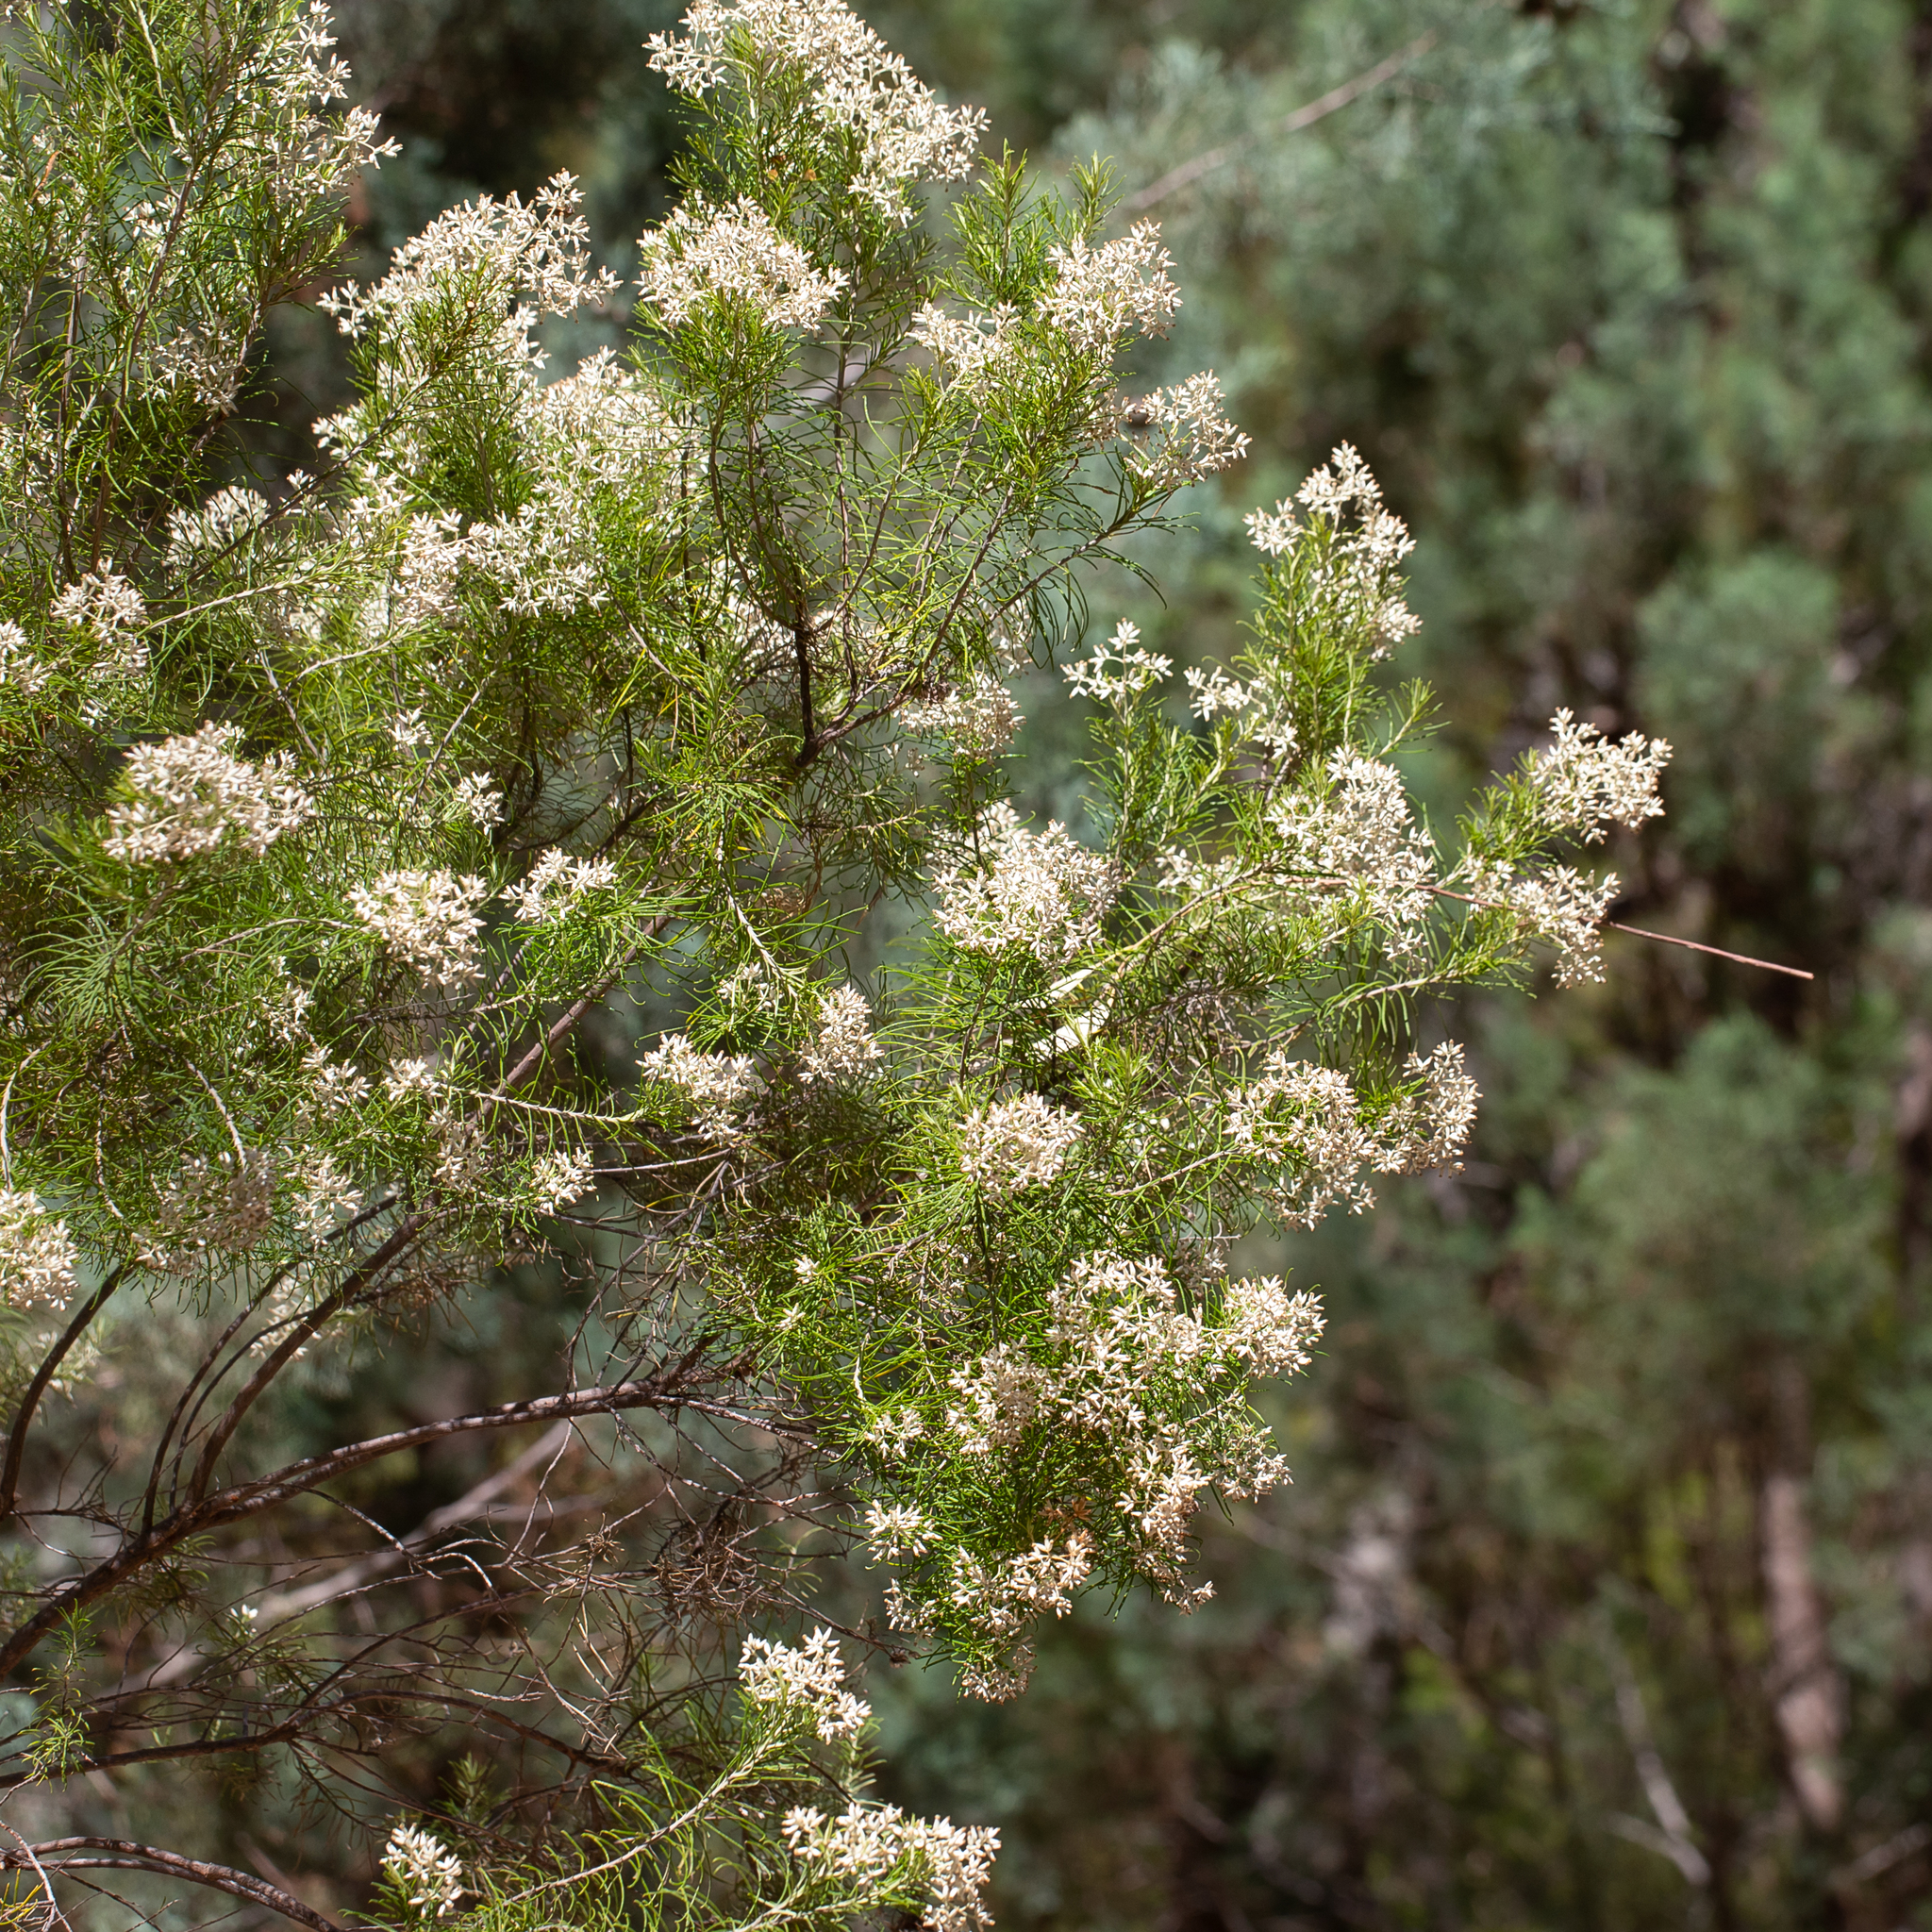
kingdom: Plantae
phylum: Tracheophyta
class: Magnoliopsida
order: Asterales
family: Asteraceae
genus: Cassinia
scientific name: Cassinia laevis
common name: Coughbush
